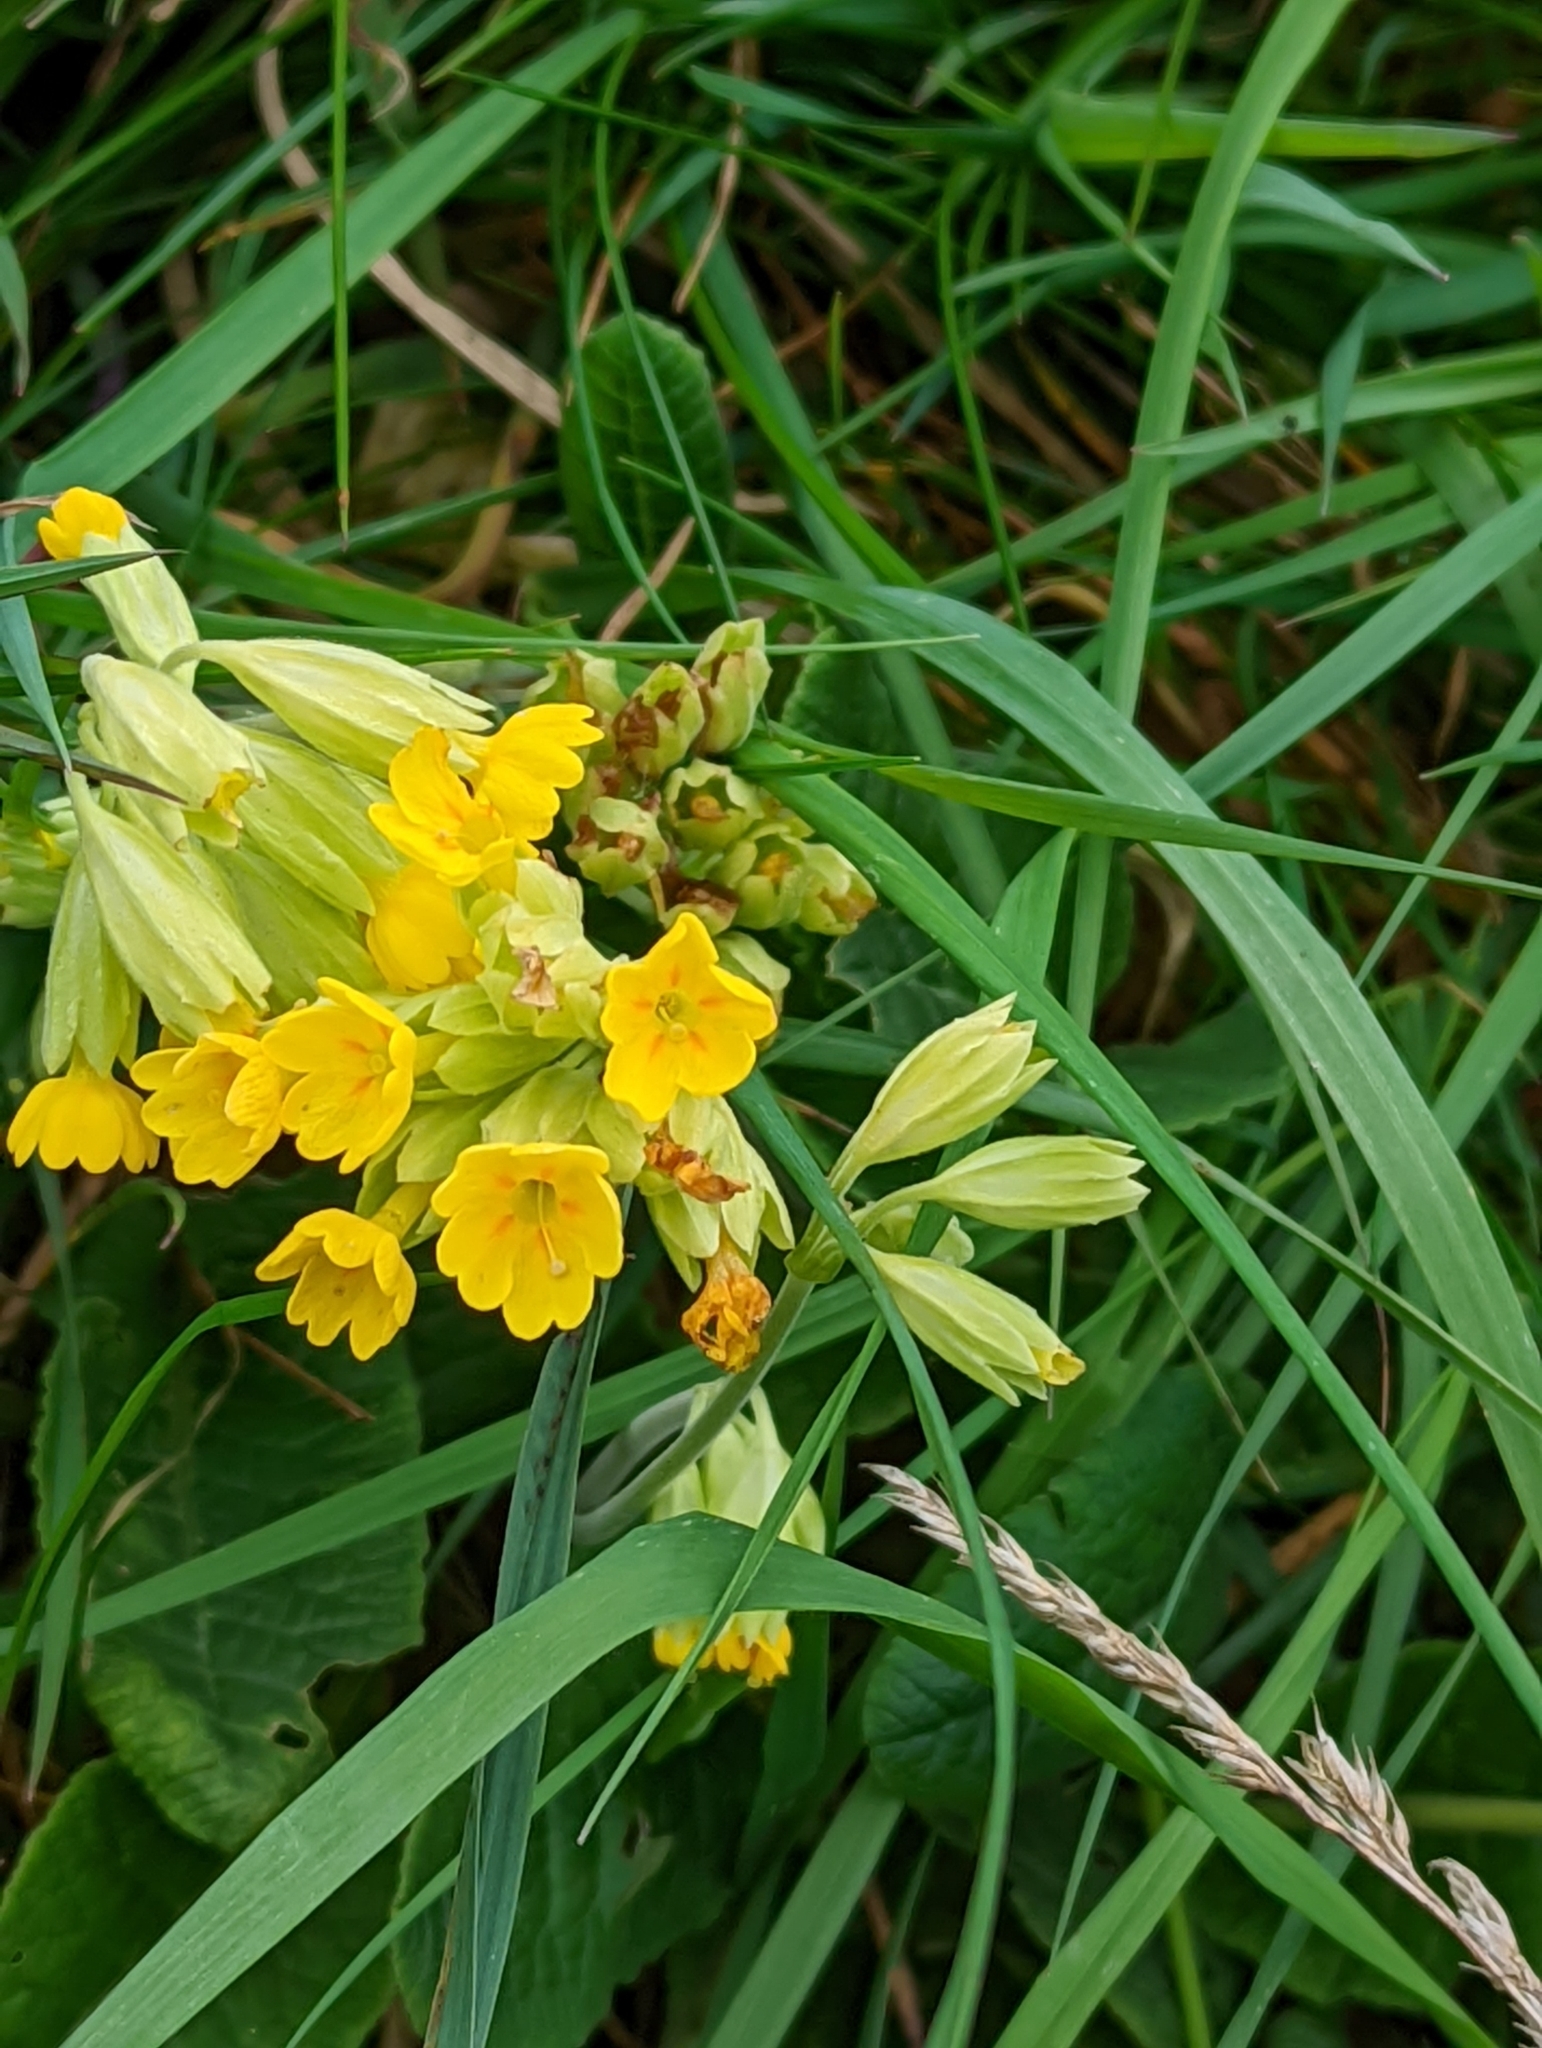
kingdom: Plantae
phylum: Tracheophyta
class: Magnoliopsida
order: Ericales
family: Primulaceae
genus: Primula
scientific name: Primula veris
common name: Cowslip
